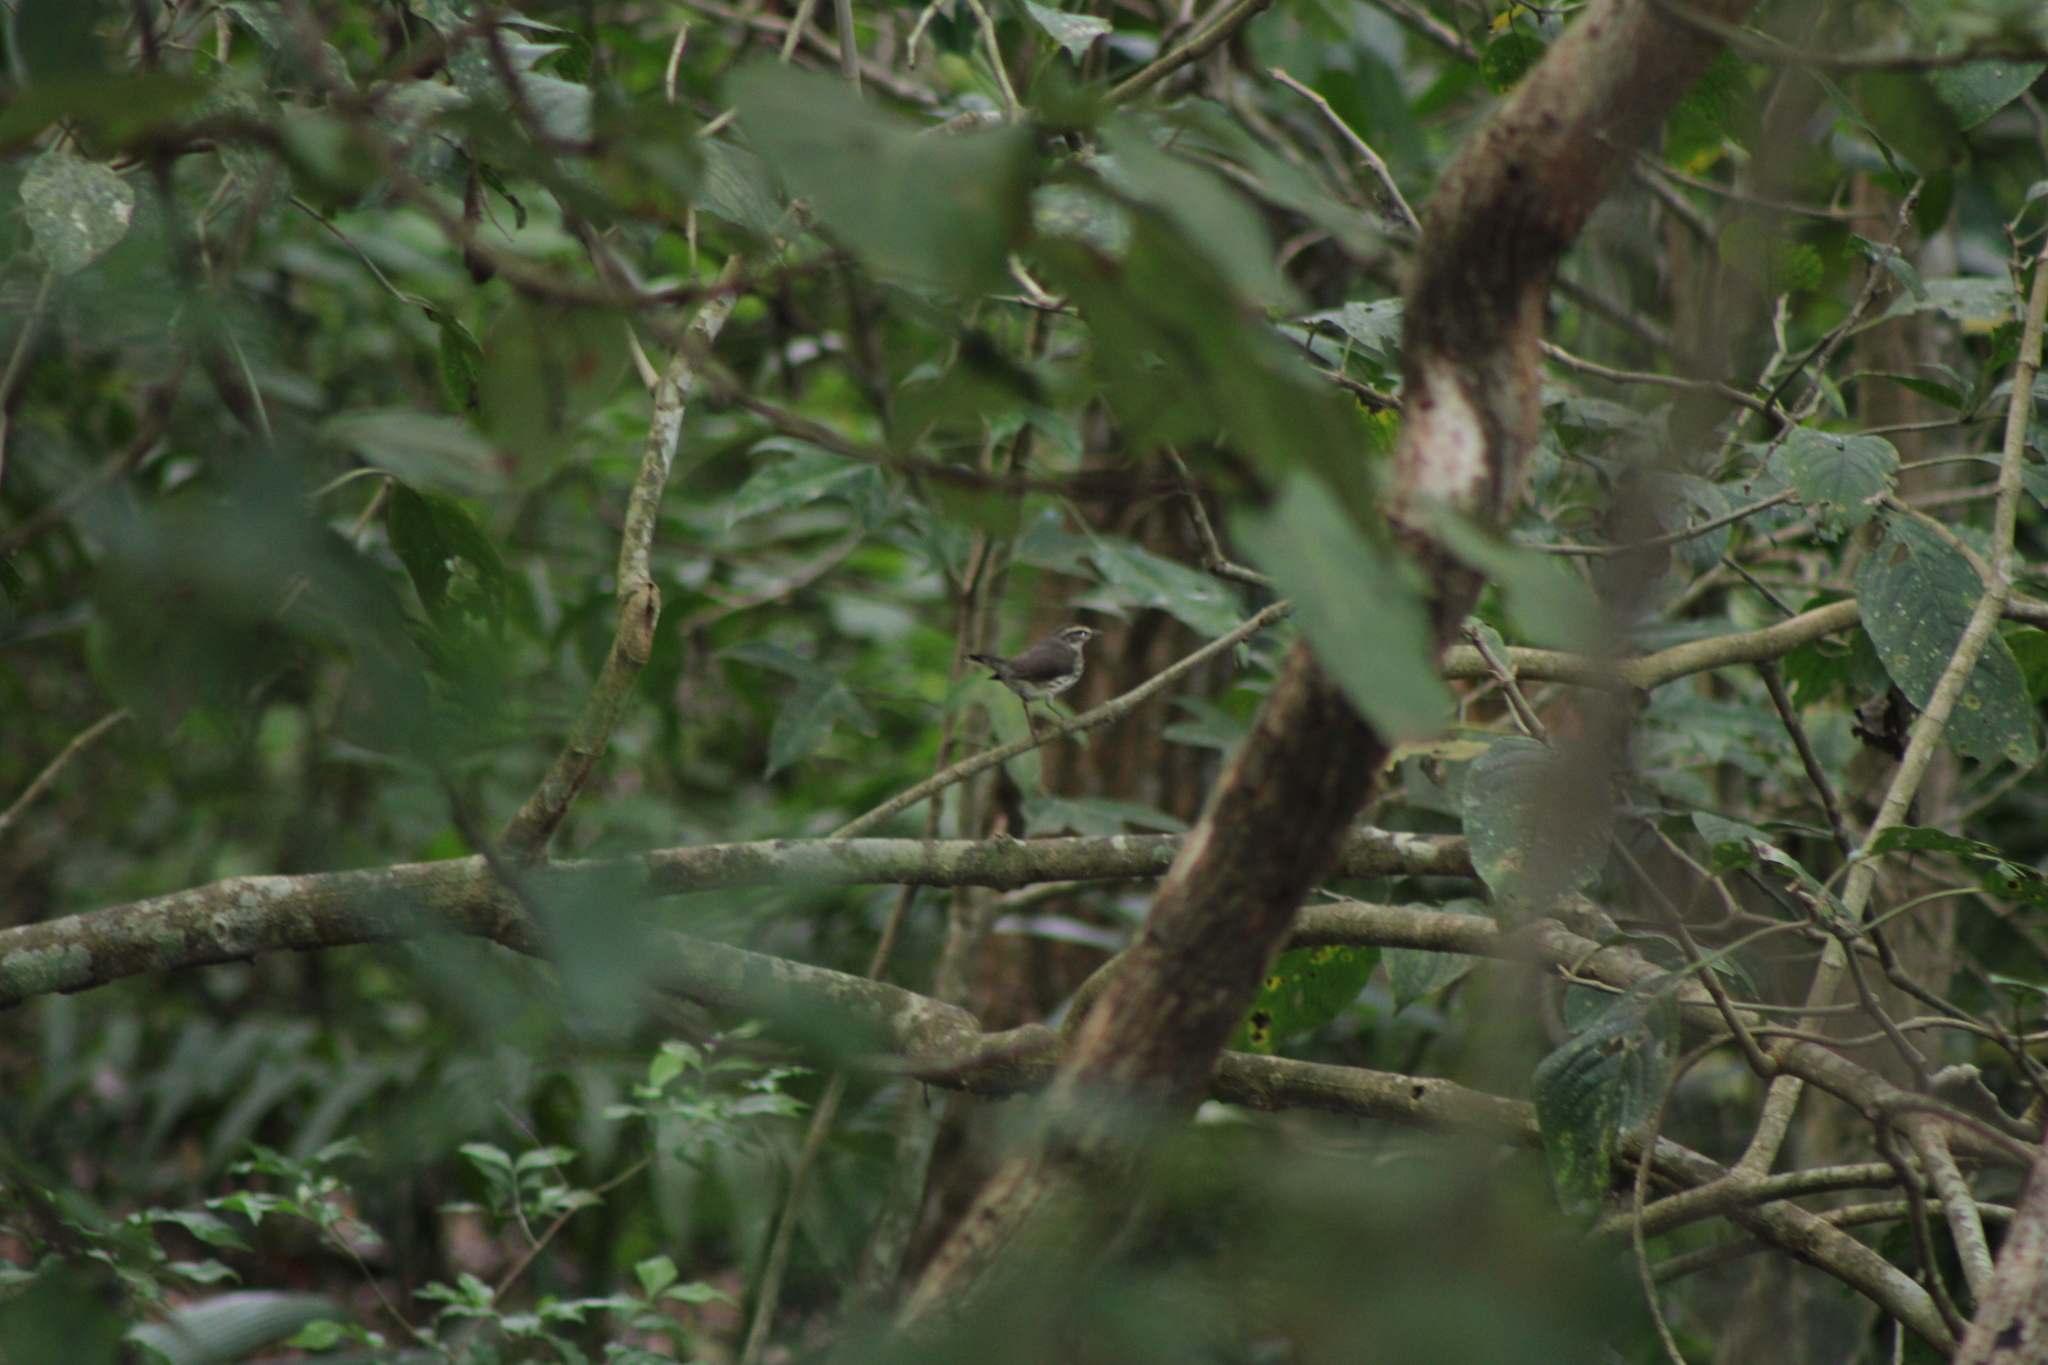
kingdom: Animalia
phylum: Chordata
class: Aves
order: Passeriformes
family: Parulidae
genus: Parkesia
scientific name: Parkesia noveboracensis
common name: Northern waterthrush
